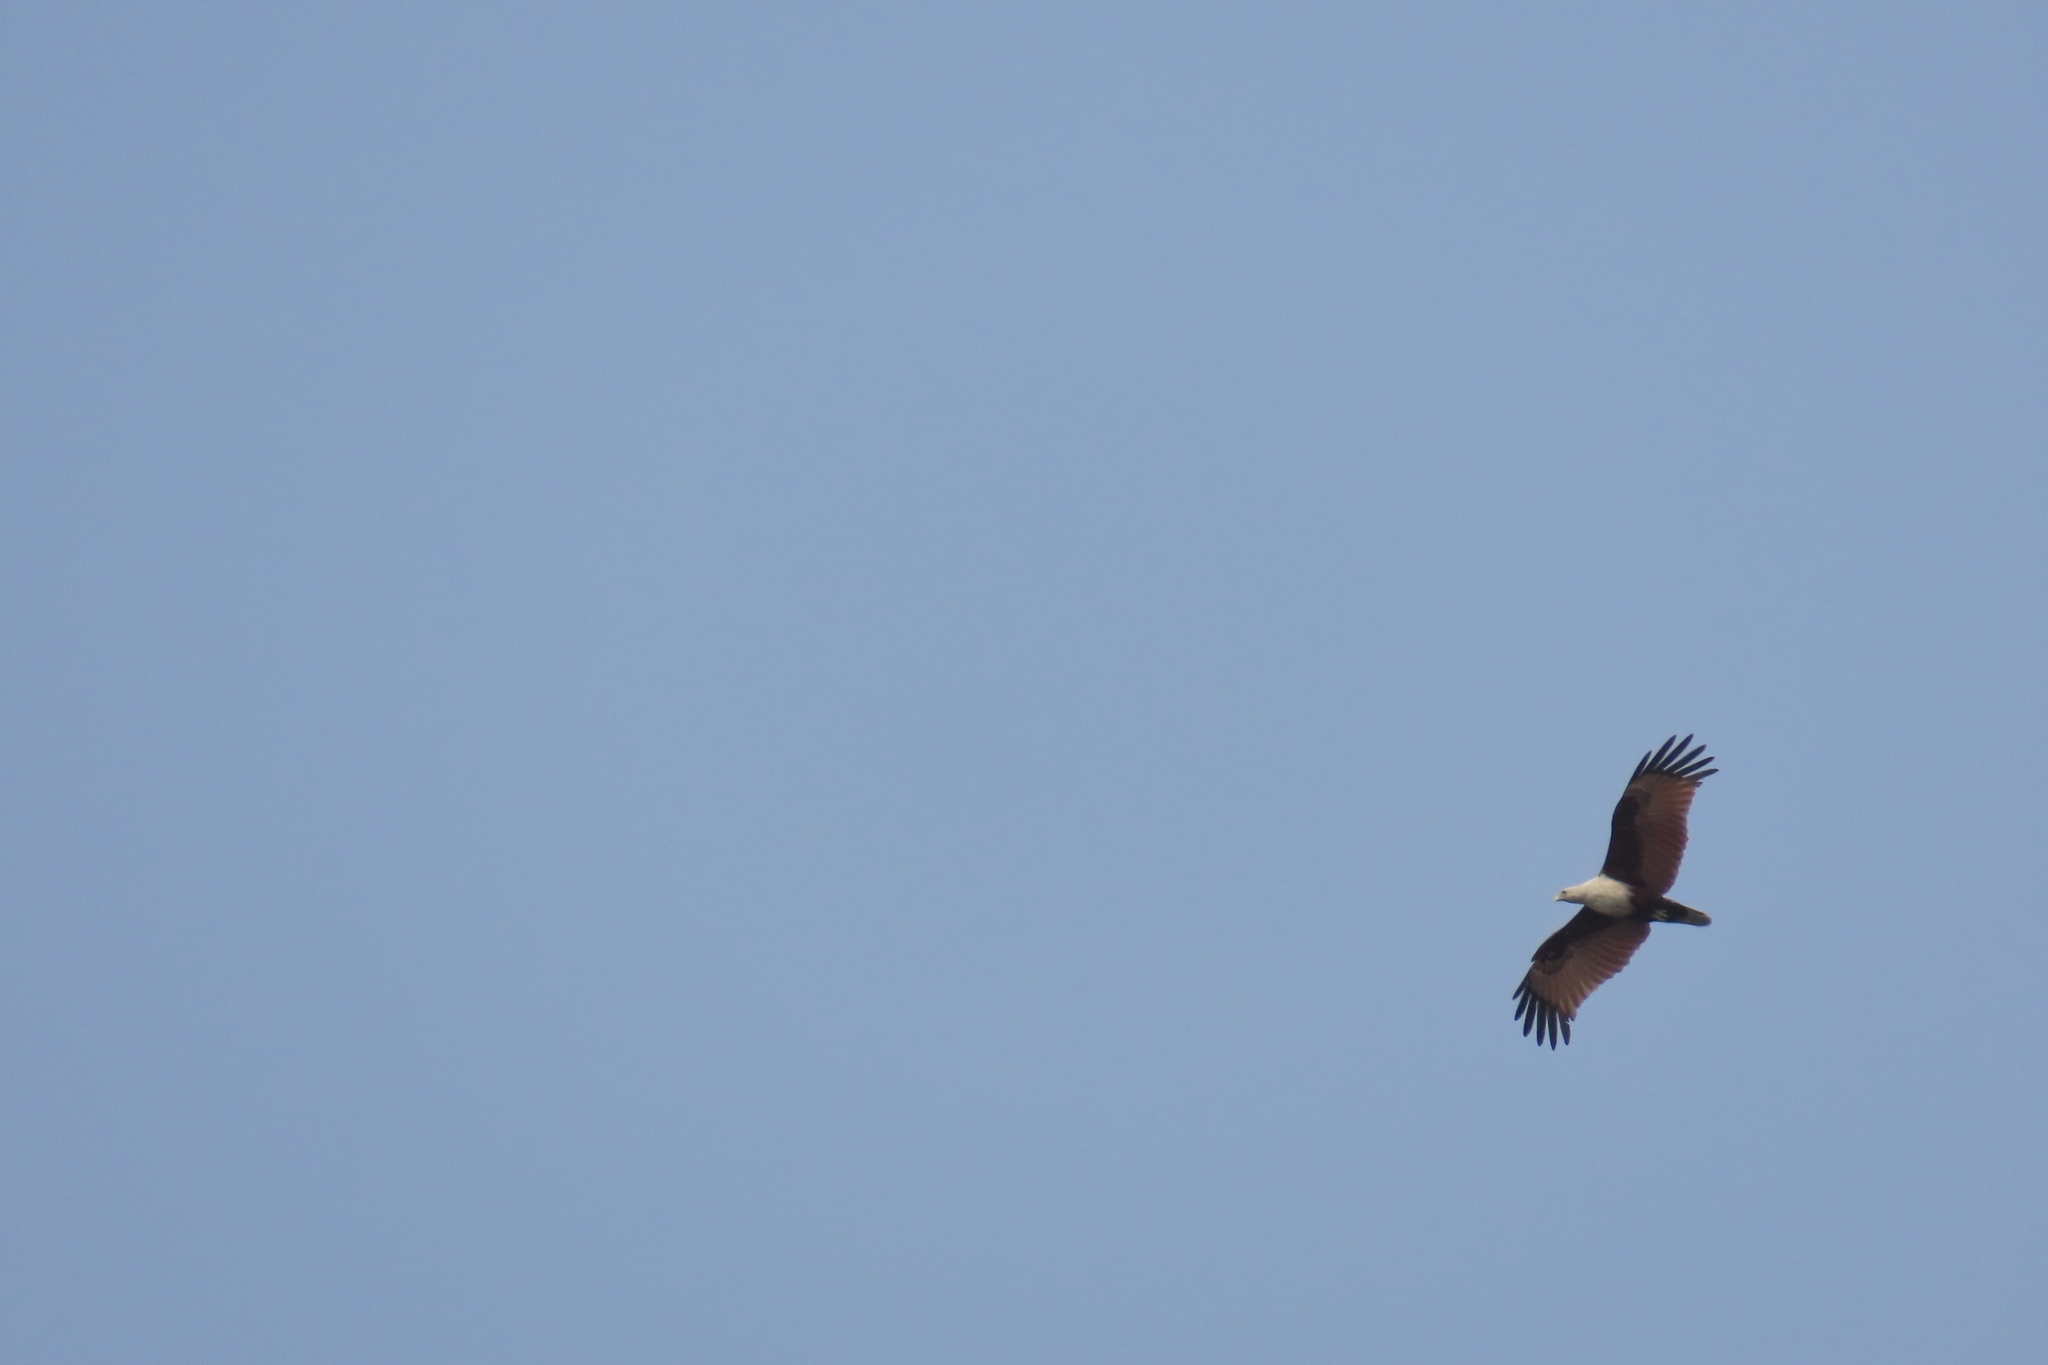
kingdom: Animalia
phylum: Chordata
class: Aves
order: Accipitriformes
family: Accipitridae
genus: Haliastur
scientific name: Haliastur indus
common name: Brahminy kite
